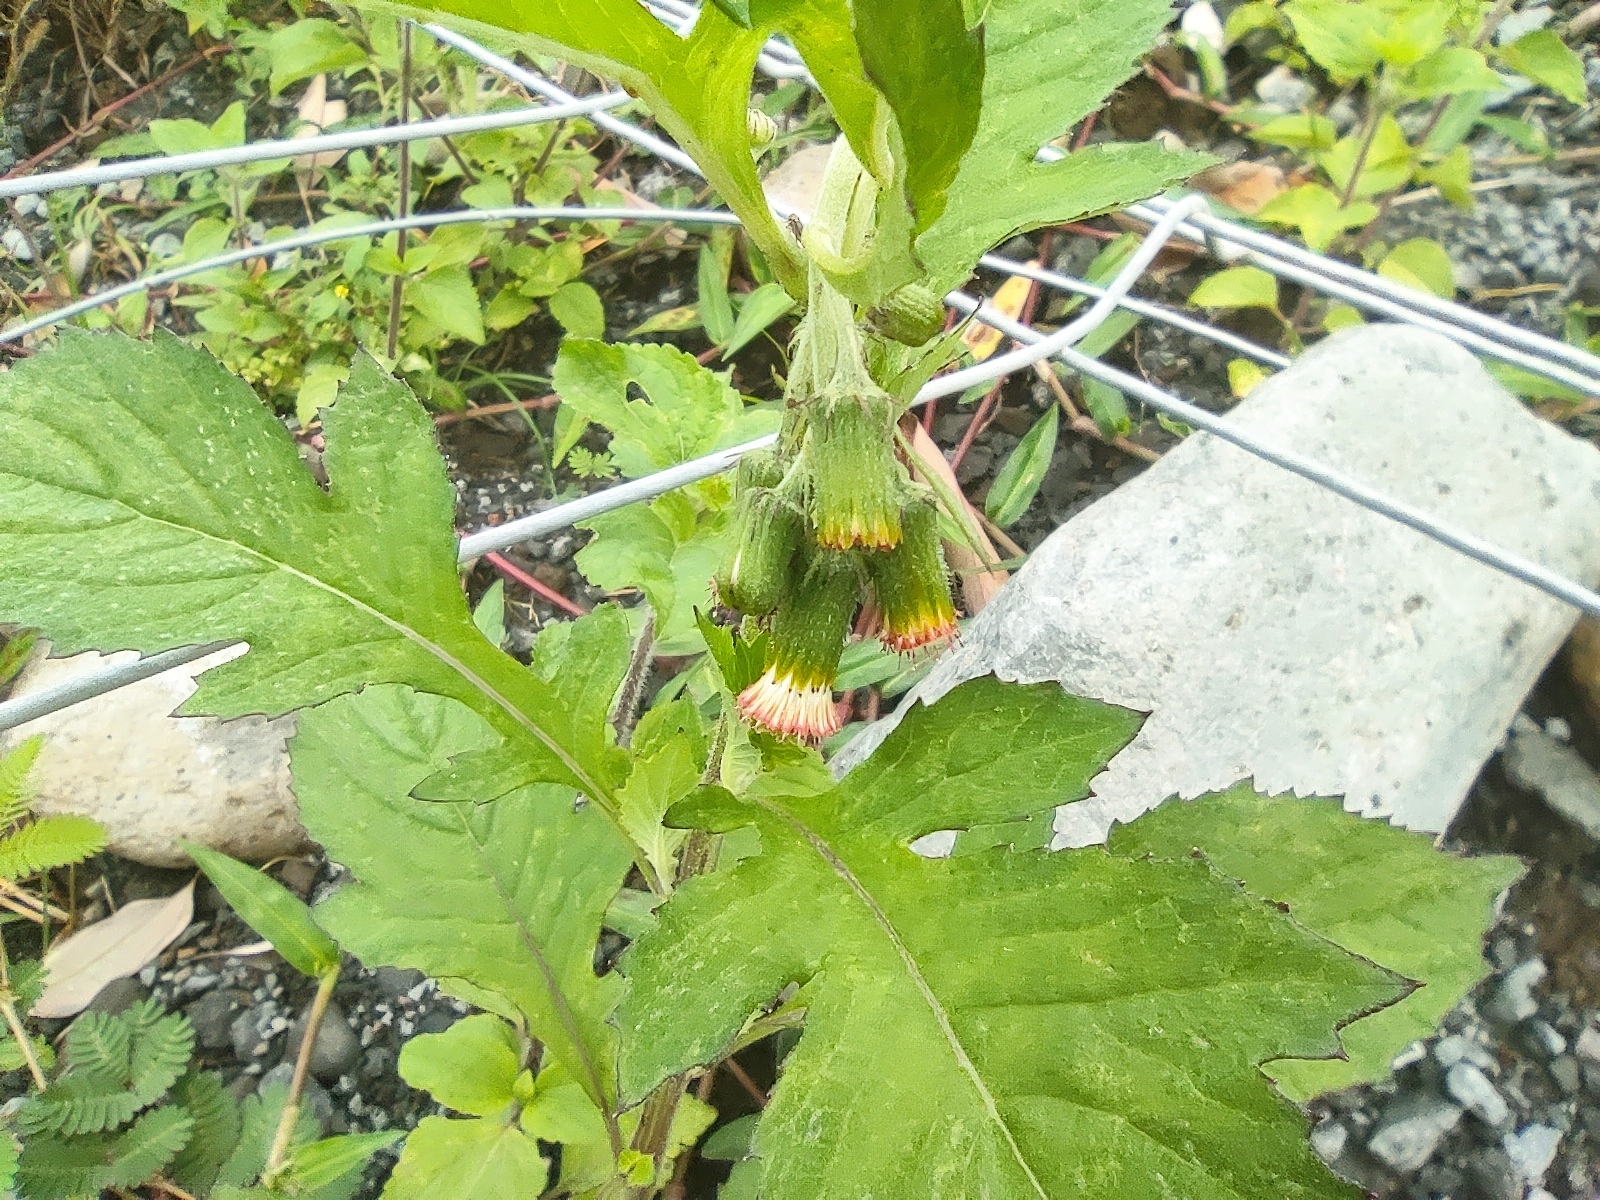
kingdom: Plantae
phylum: Tracheophyta
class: Magnoliopsida
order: Asterales
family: Asteraceae
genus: Crassocephalum
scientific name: Crassocephalum crepidioides
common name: Redflower ragleaf
